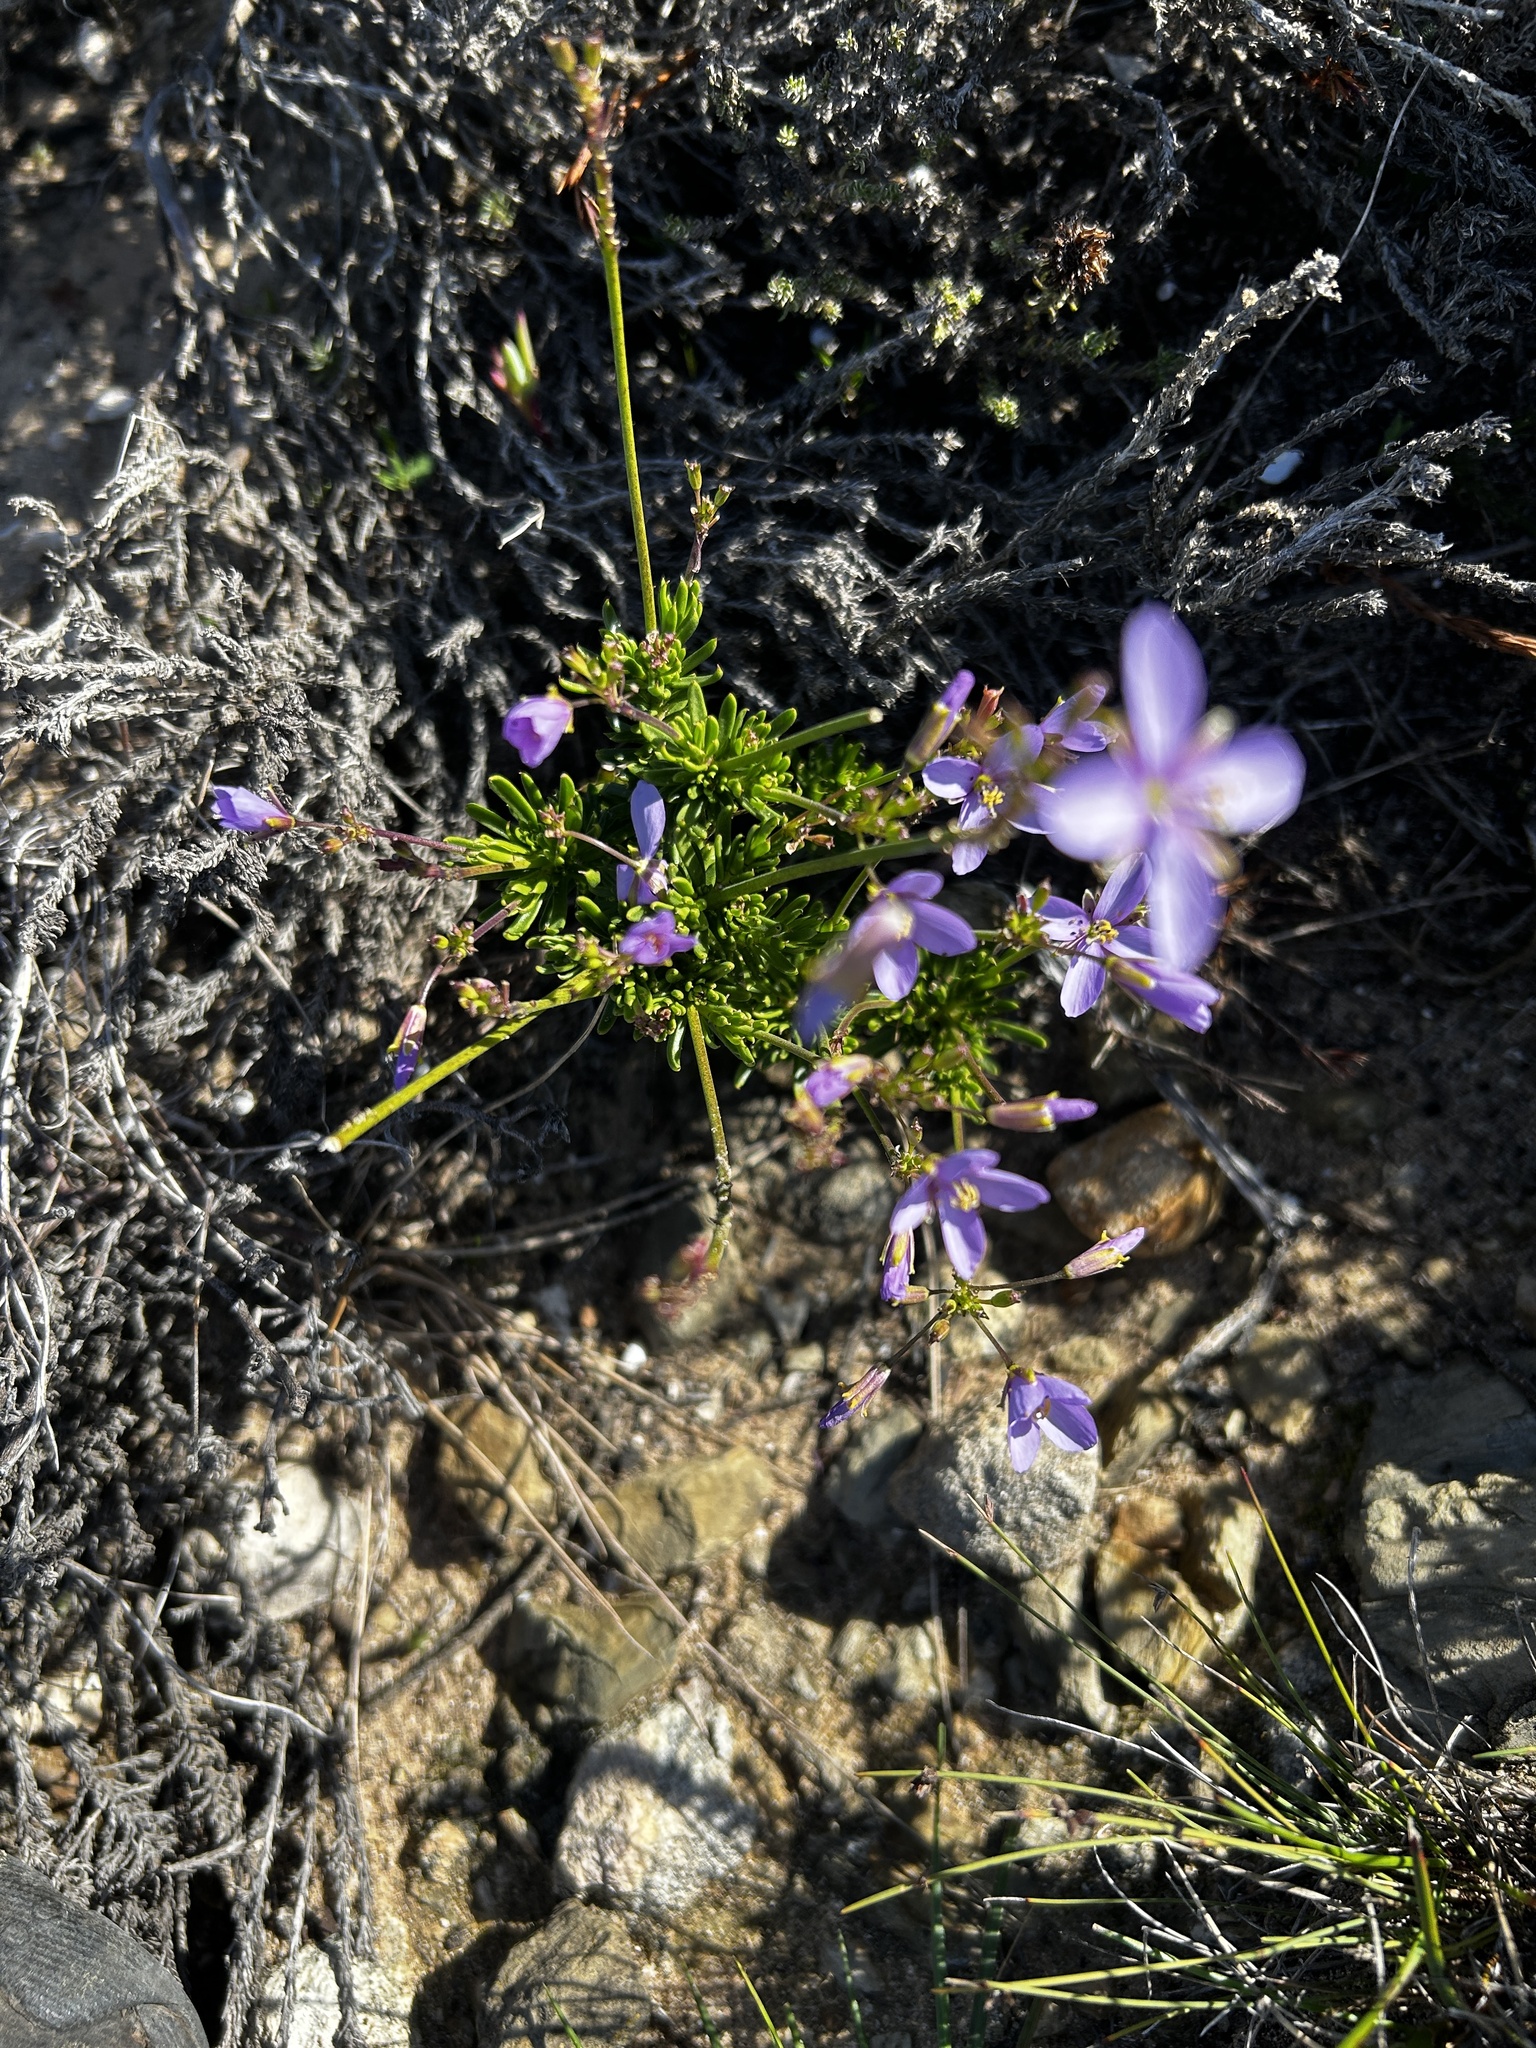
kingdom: Plantae
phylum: Tracheophyta
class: Magnoliopsida
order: Brassicales
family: Brassicaceae
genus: Heliophila
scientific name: Heliophila subulata
